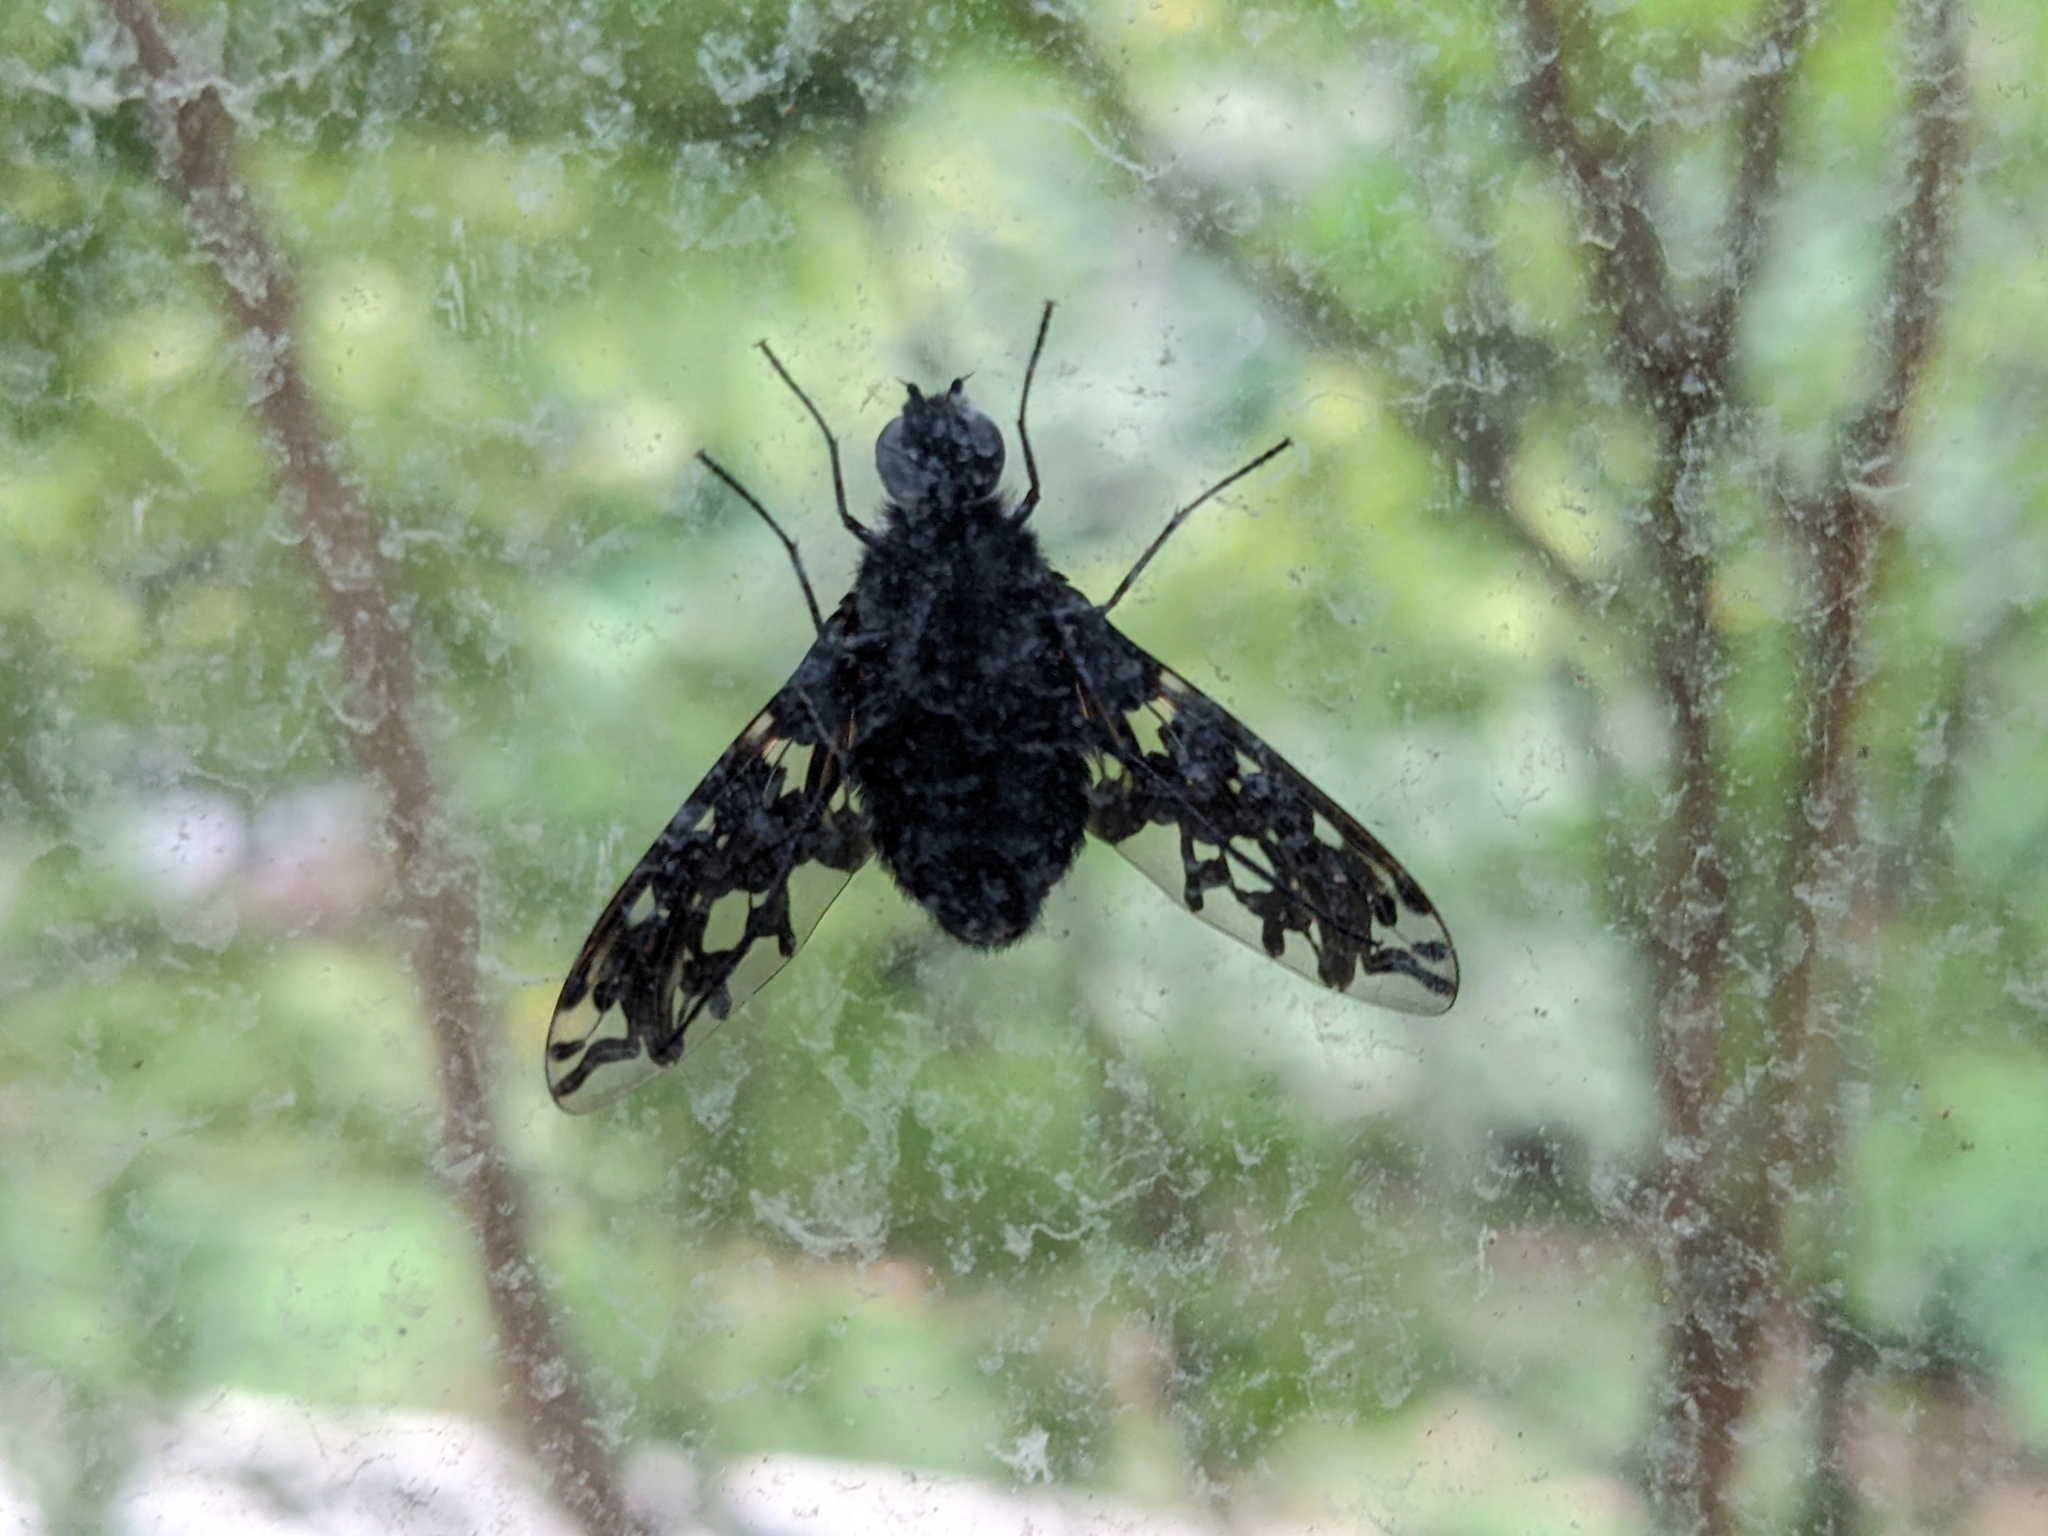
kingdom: Animalia
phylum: Arthropoda
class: Insecta
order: Diptera
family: Bombyliidae
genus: Xenox
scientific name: Xenox tigrinus
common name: Tiger bee fly
